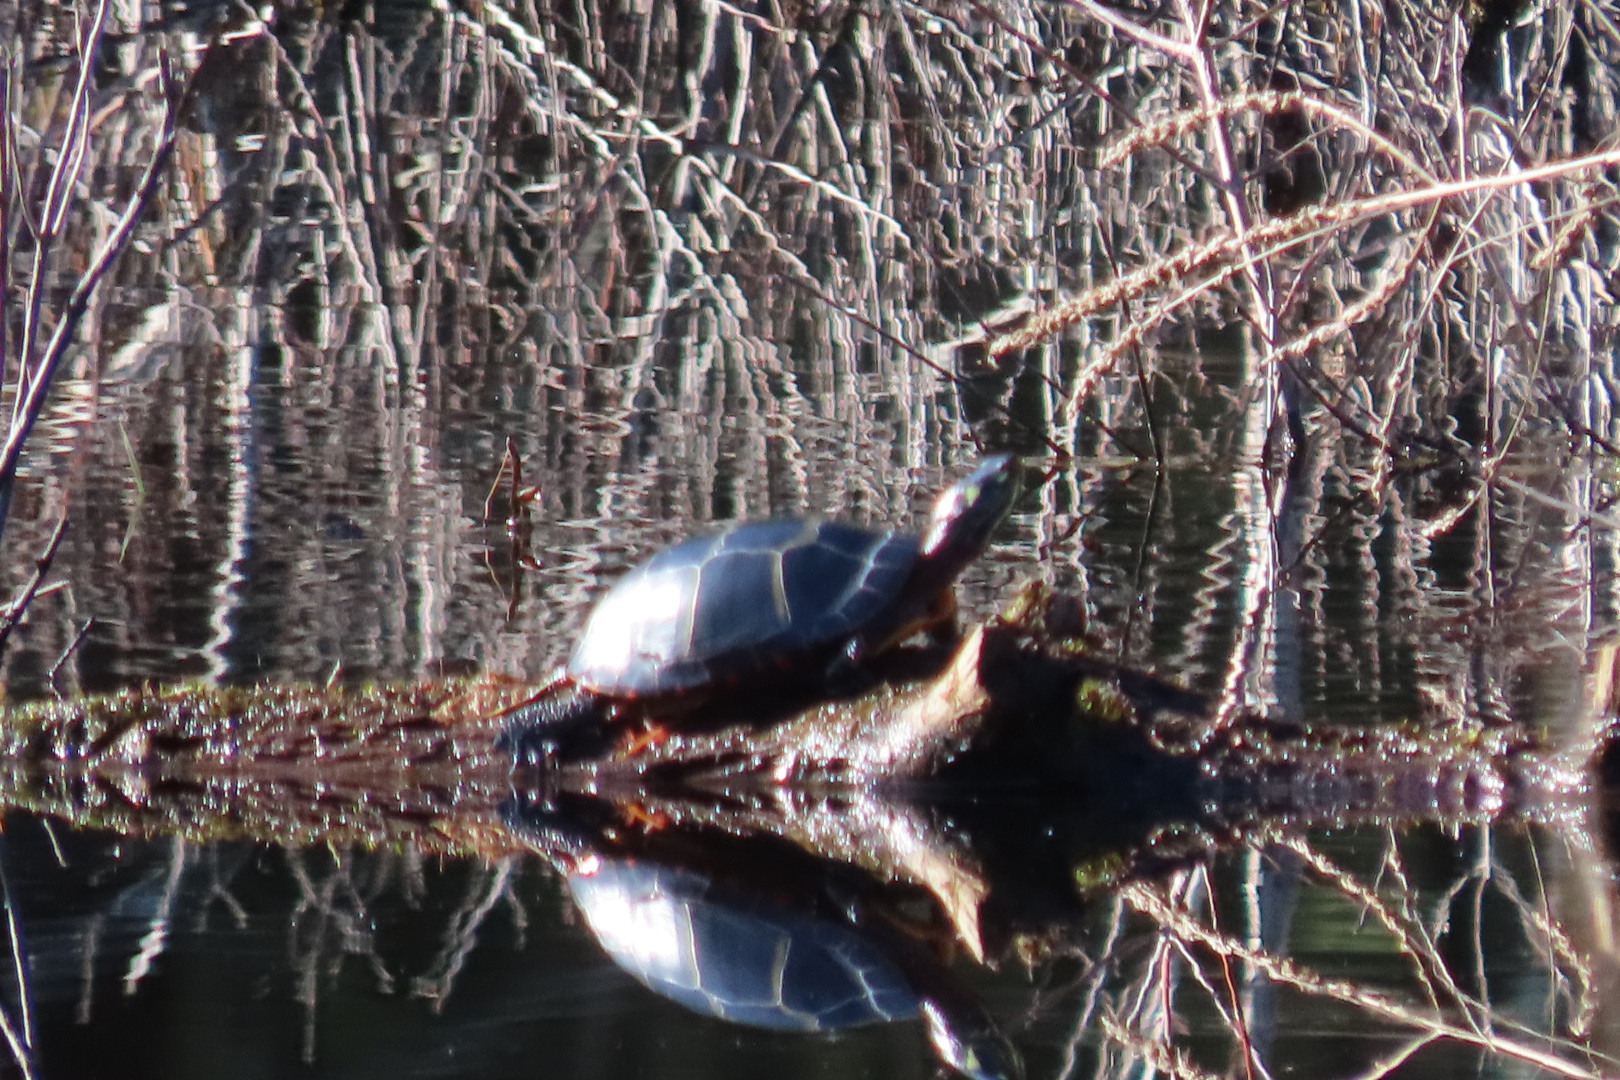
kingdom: Animalia
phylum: Chordata
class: Testudines
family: Emydidae
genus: Chrysemys
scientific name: Chrysemys picta
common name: Painted turtle
